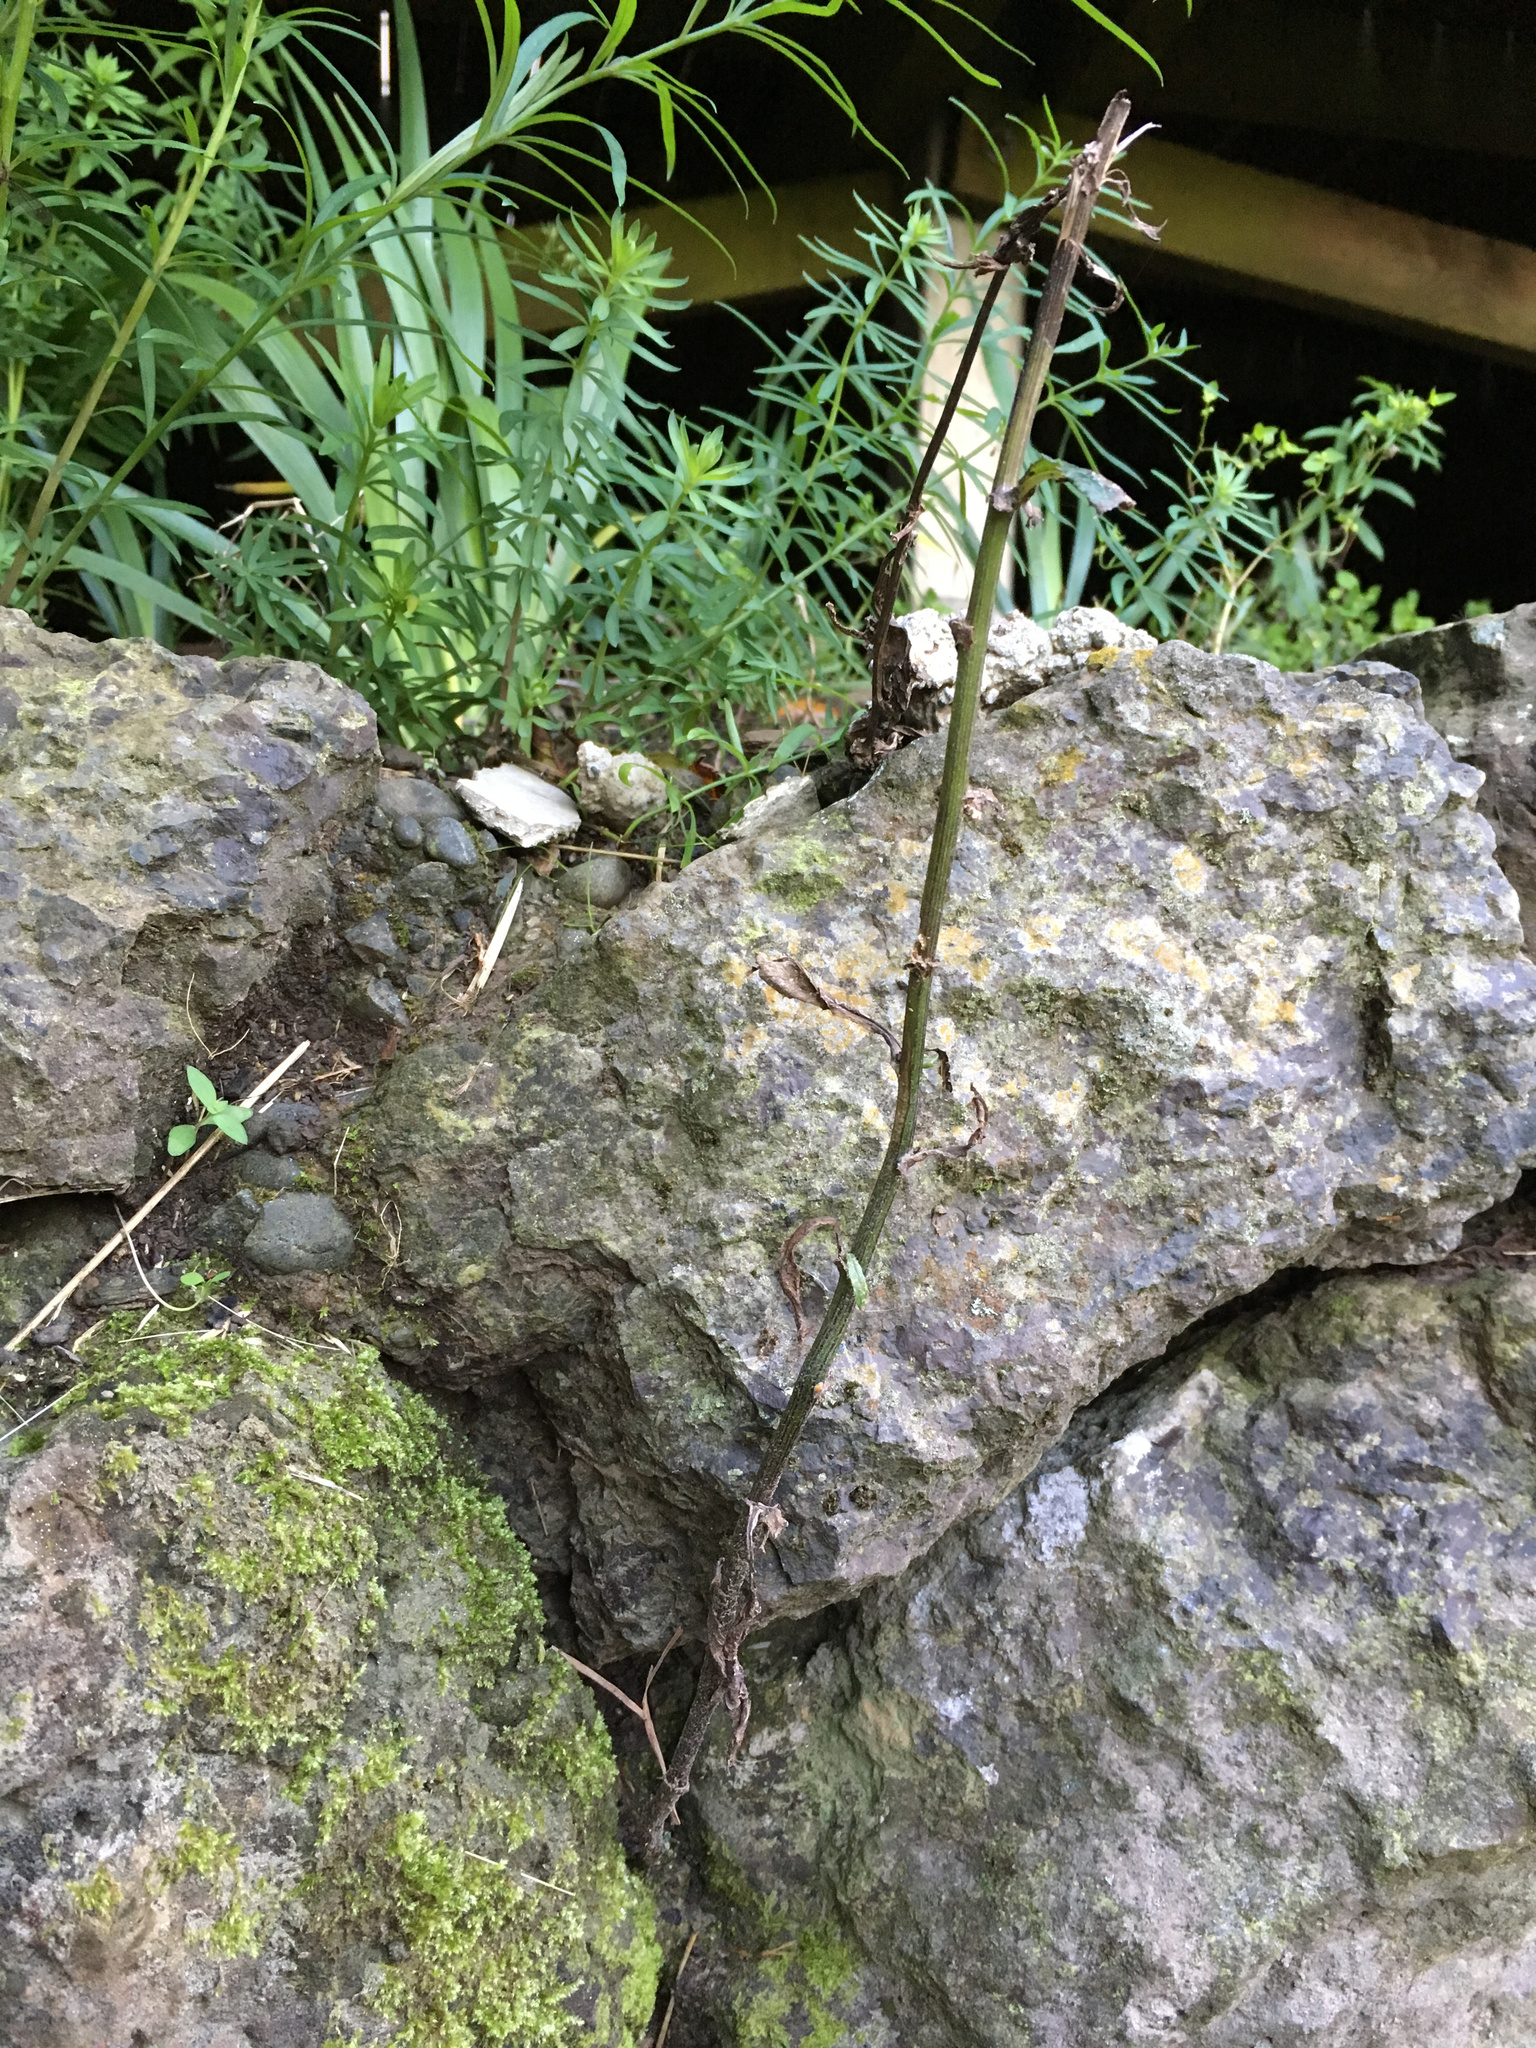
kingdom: Plantae
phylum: Tracheophyta
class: Magnoliopsida
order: Asterales
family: Asteraceae
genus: Senecio
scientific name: Senecio minimus
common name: Toothed fireweed
